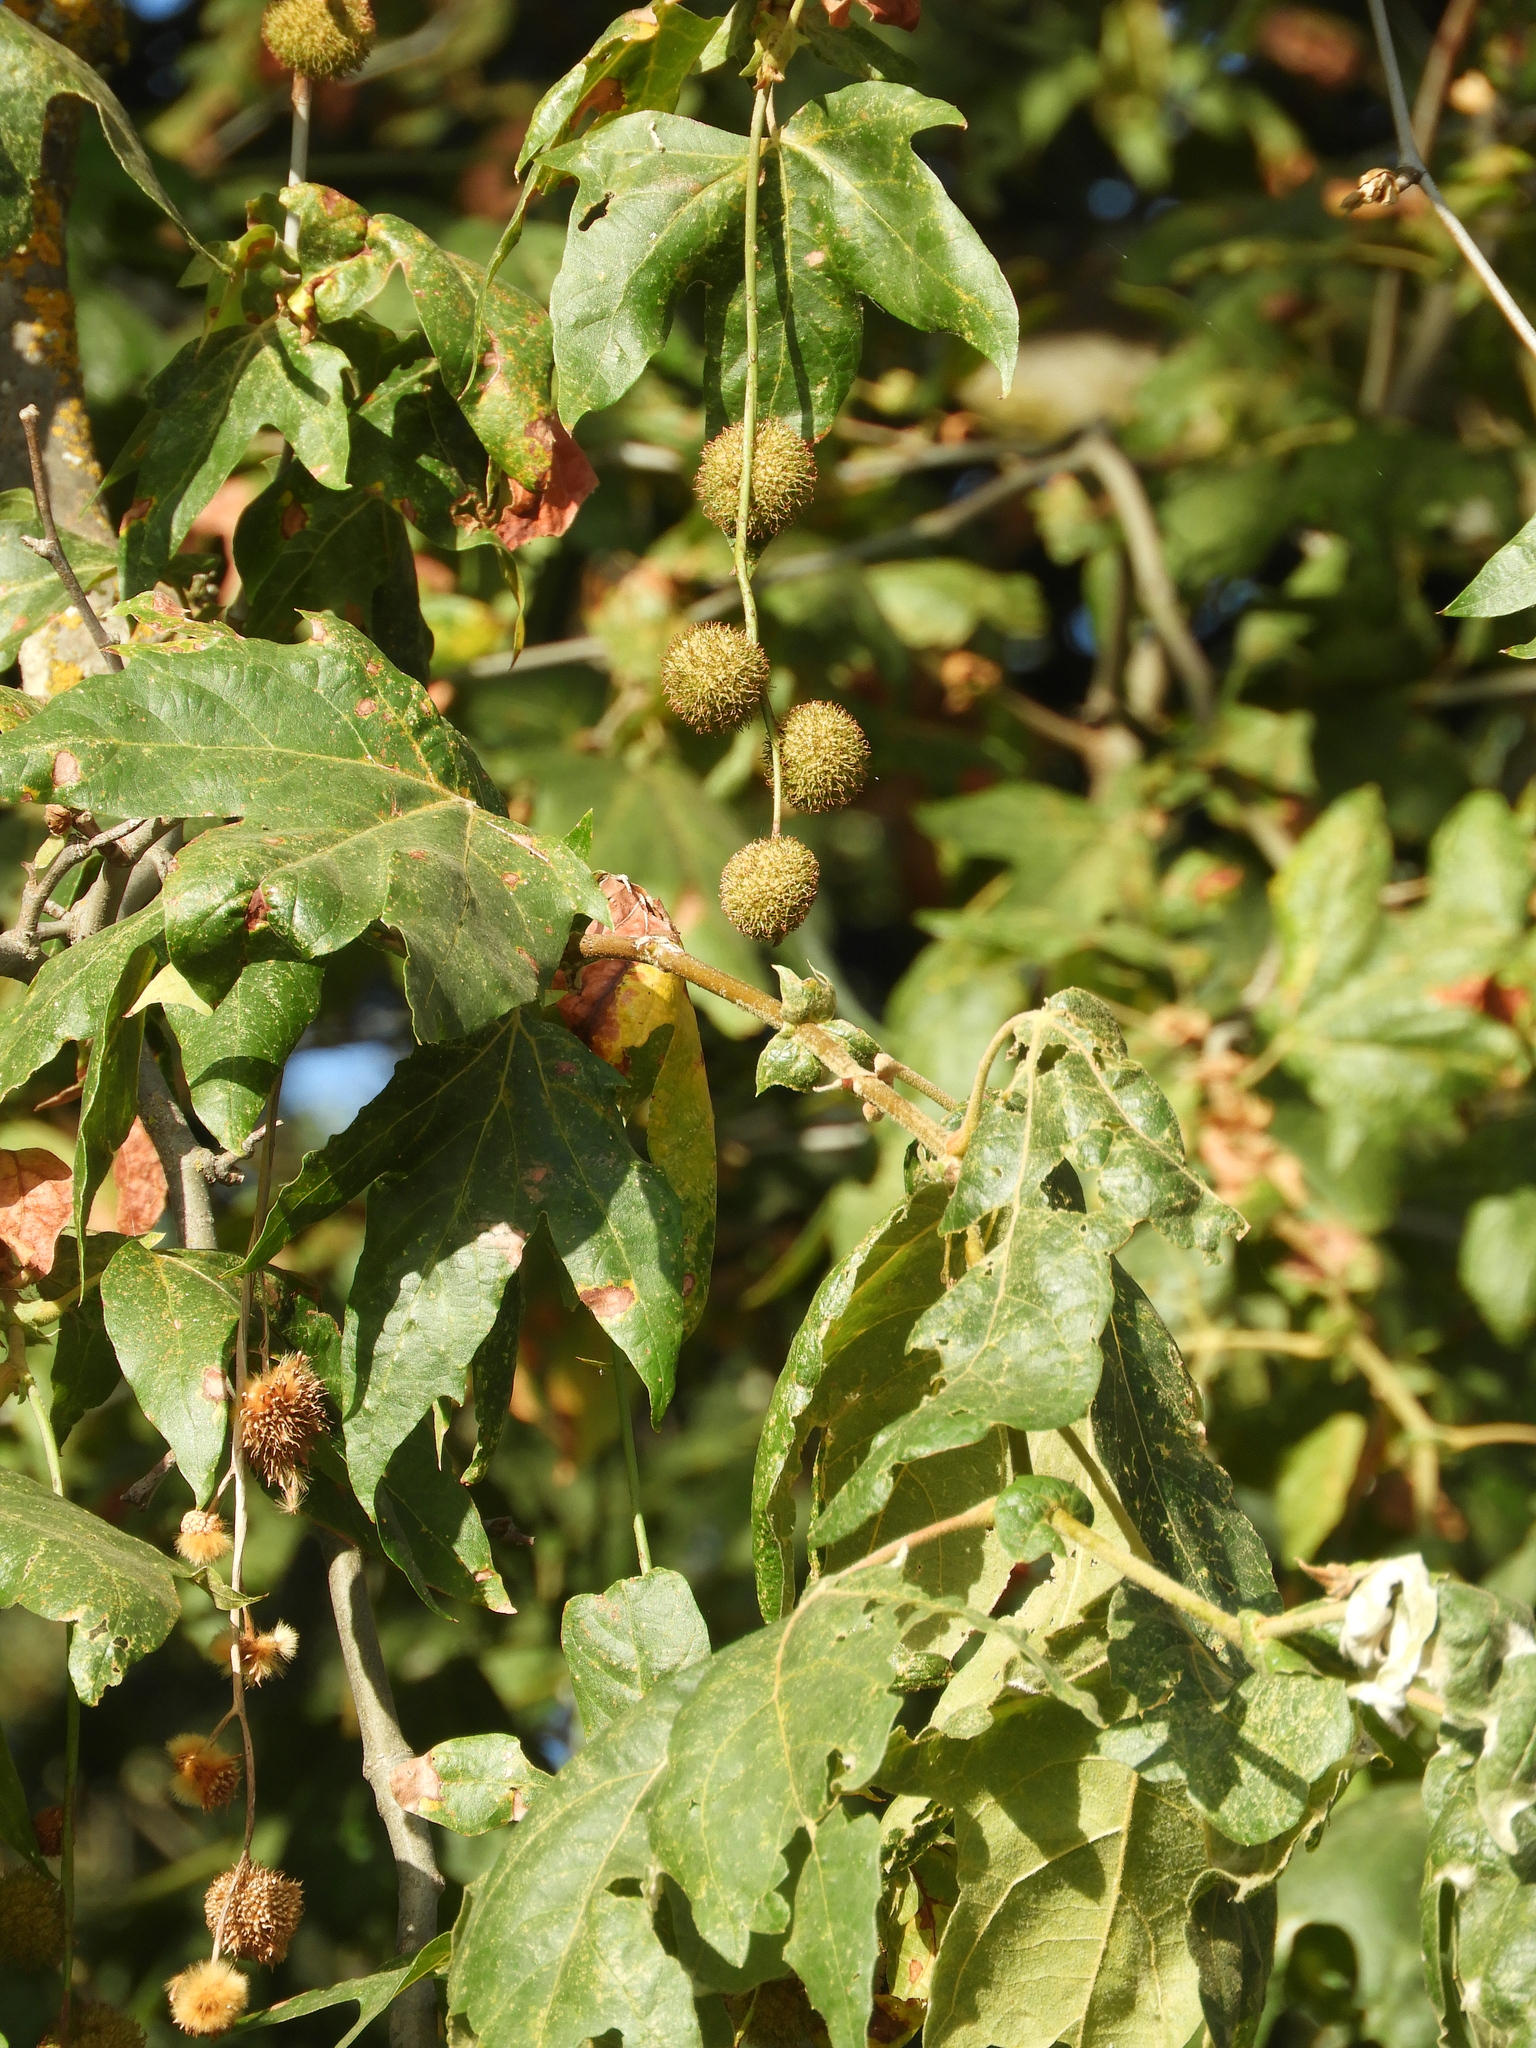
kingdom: Plantae
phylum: Tracheophyta
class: Magnoliopsida
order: Proteales
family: Platanaceae
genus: Platanus
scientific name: Platanus racemosa
